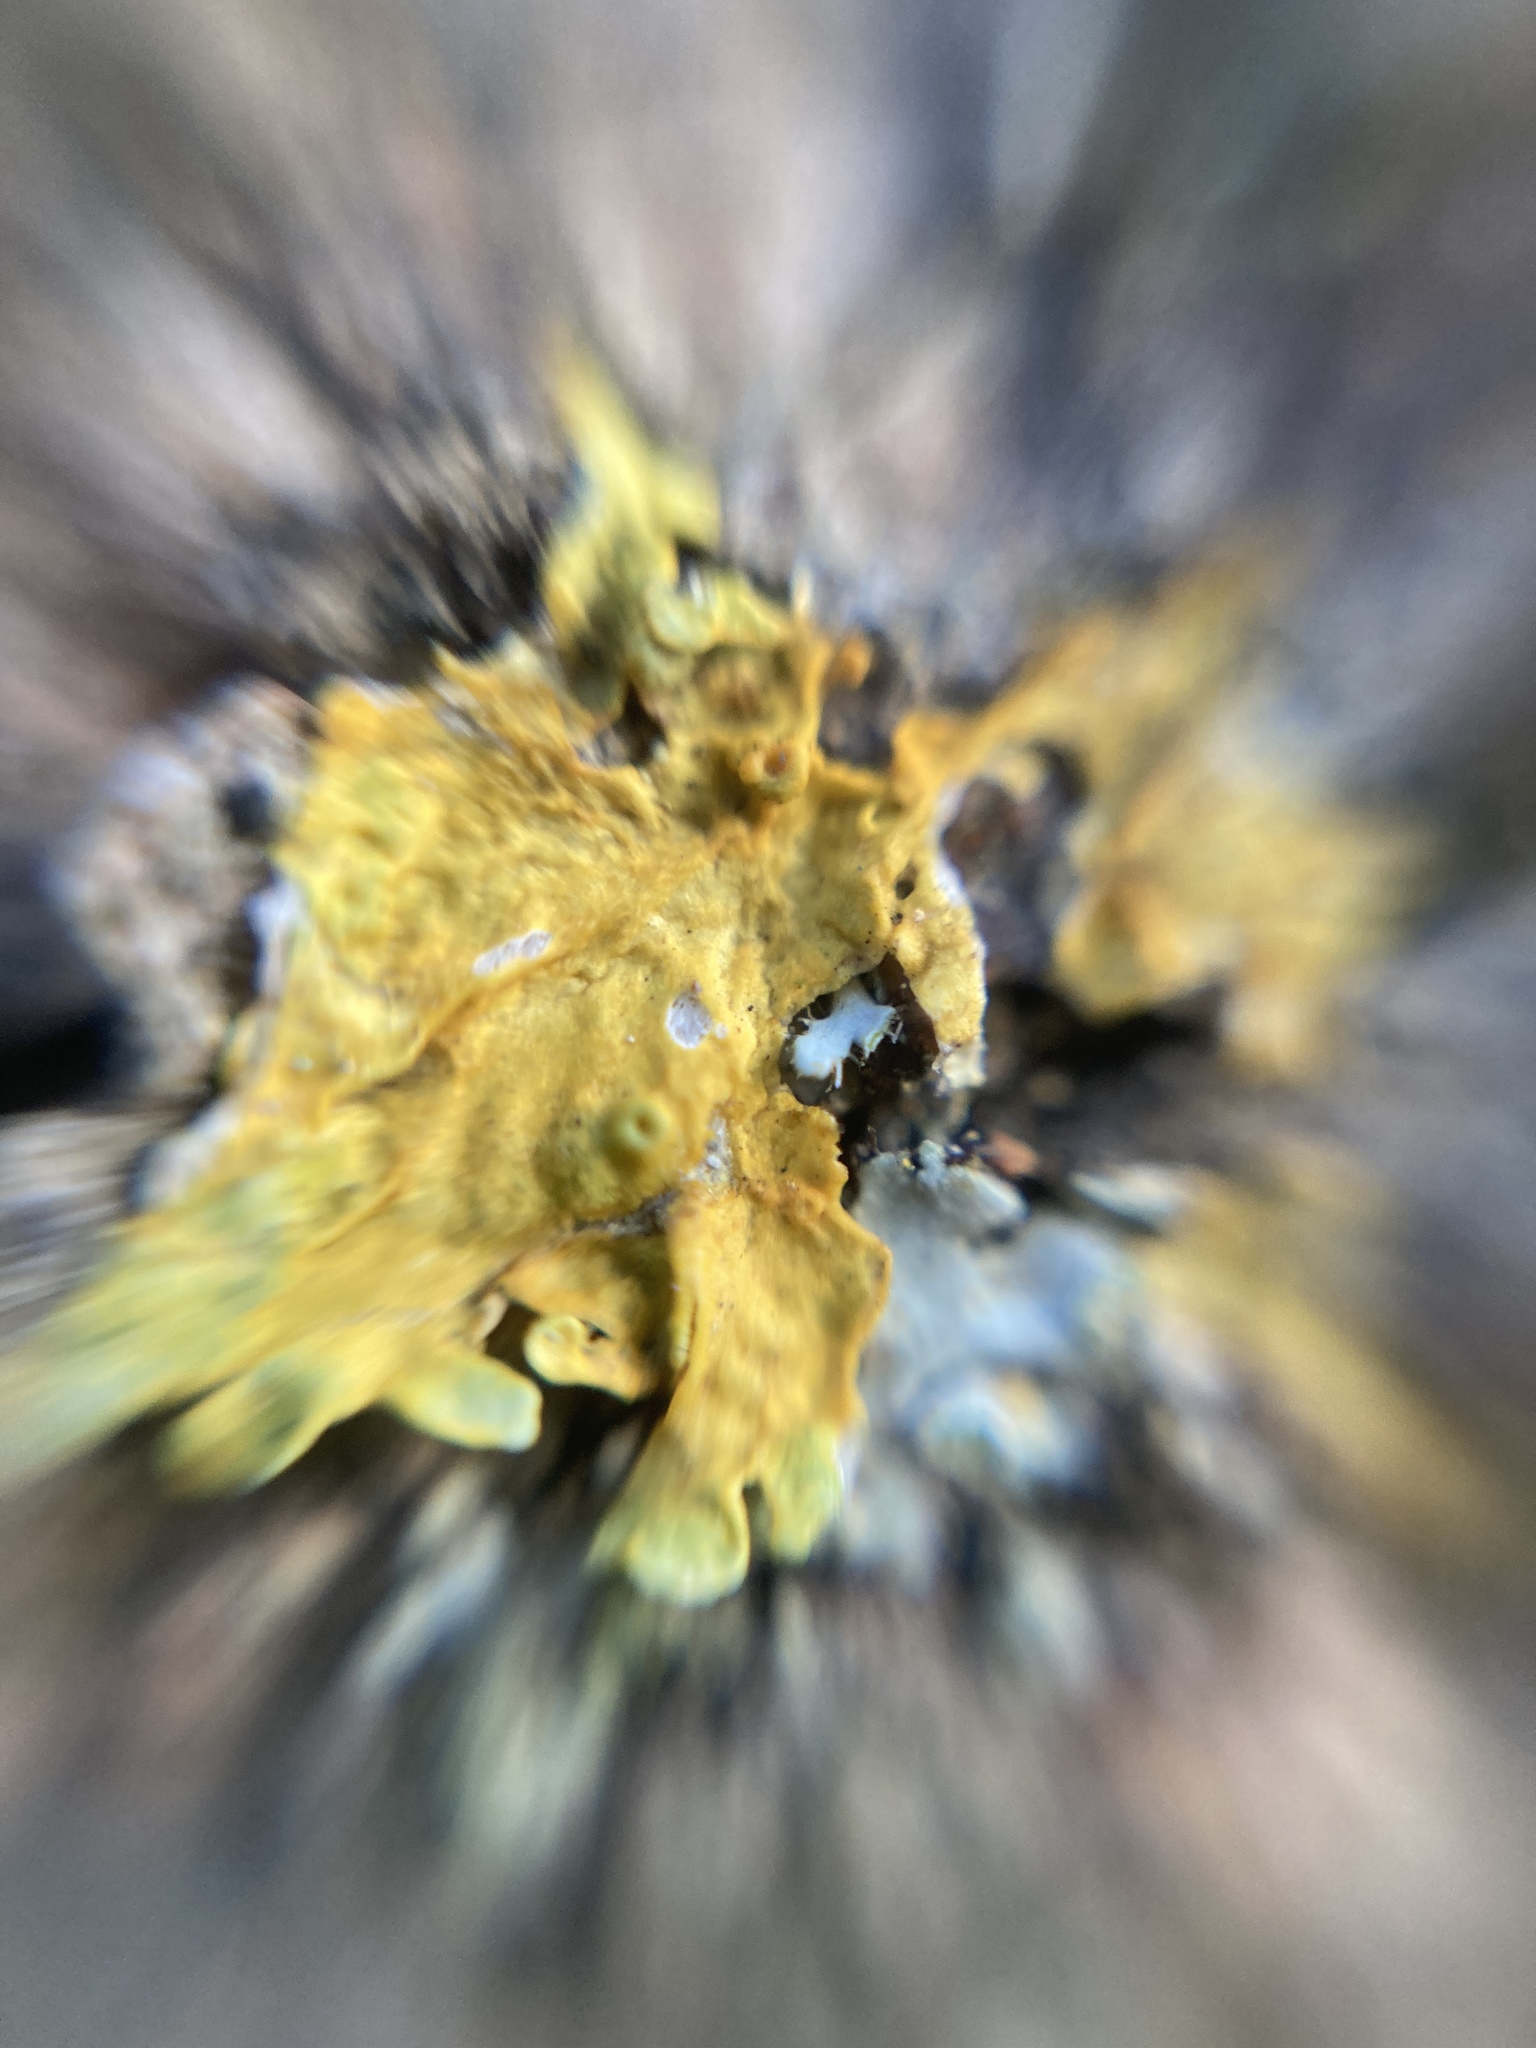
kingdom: Fungi
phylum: Ascomycota
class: Lecanoromycetes
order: Teloschistales
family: Teloschistaceae
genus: Xanthoria
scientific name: Xanthoria parietina
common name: Common orange lichen
